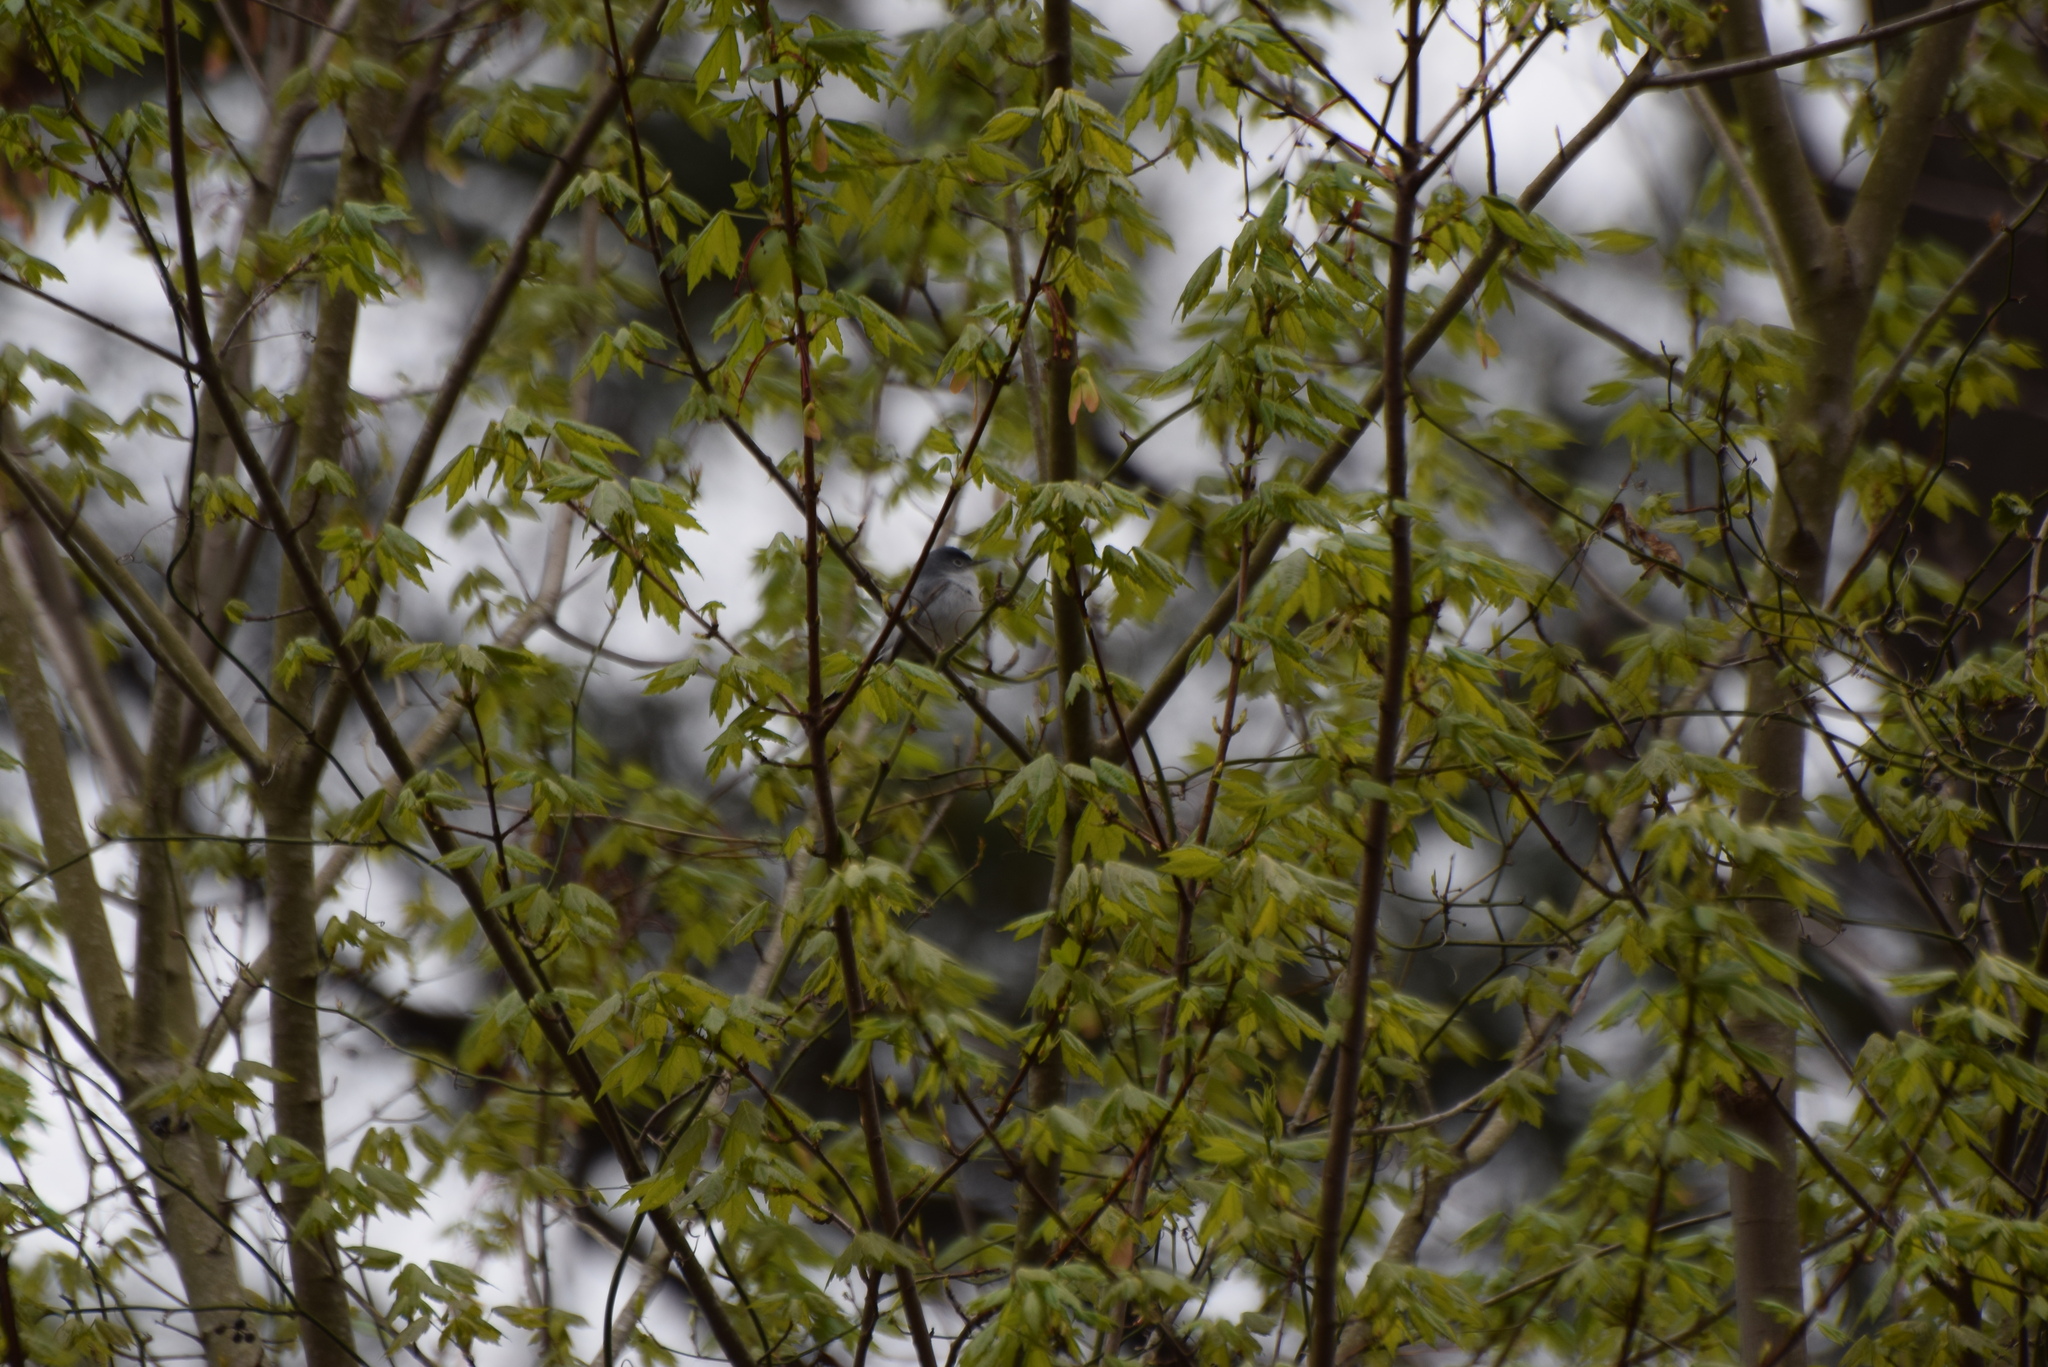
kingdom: Animalia
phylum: Chordata
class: Aves
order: Passeriformes
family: Polioptilidae
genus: Polioptila
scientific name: Polioptila caerulea
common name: Blue-gray gnatcatcher
